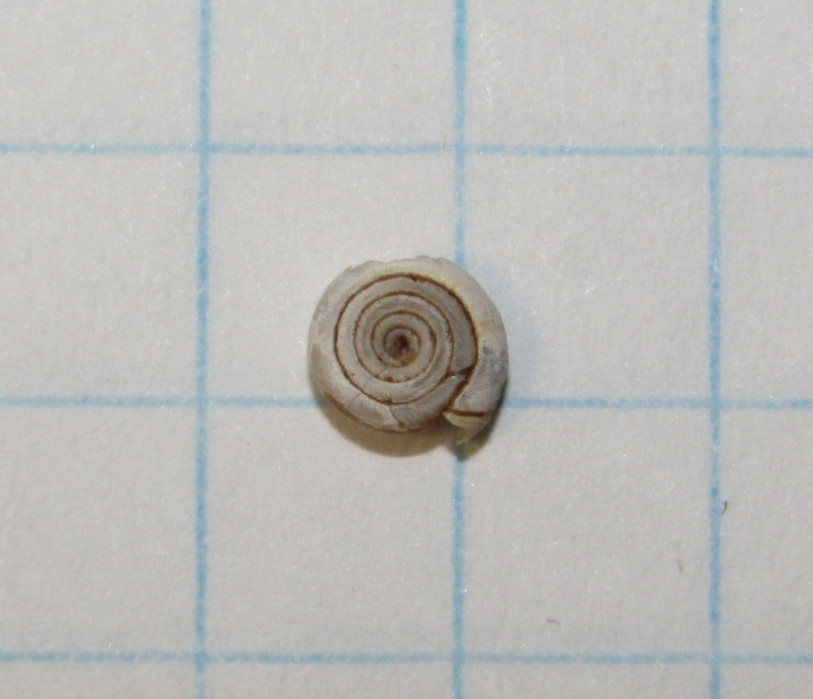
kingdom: Animalia
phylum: Mollusca
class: Gastropoda
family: Planorbidae
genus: Bathyomphalus
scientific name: Bathyomphalus contortus
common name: Twisted ramshorn
